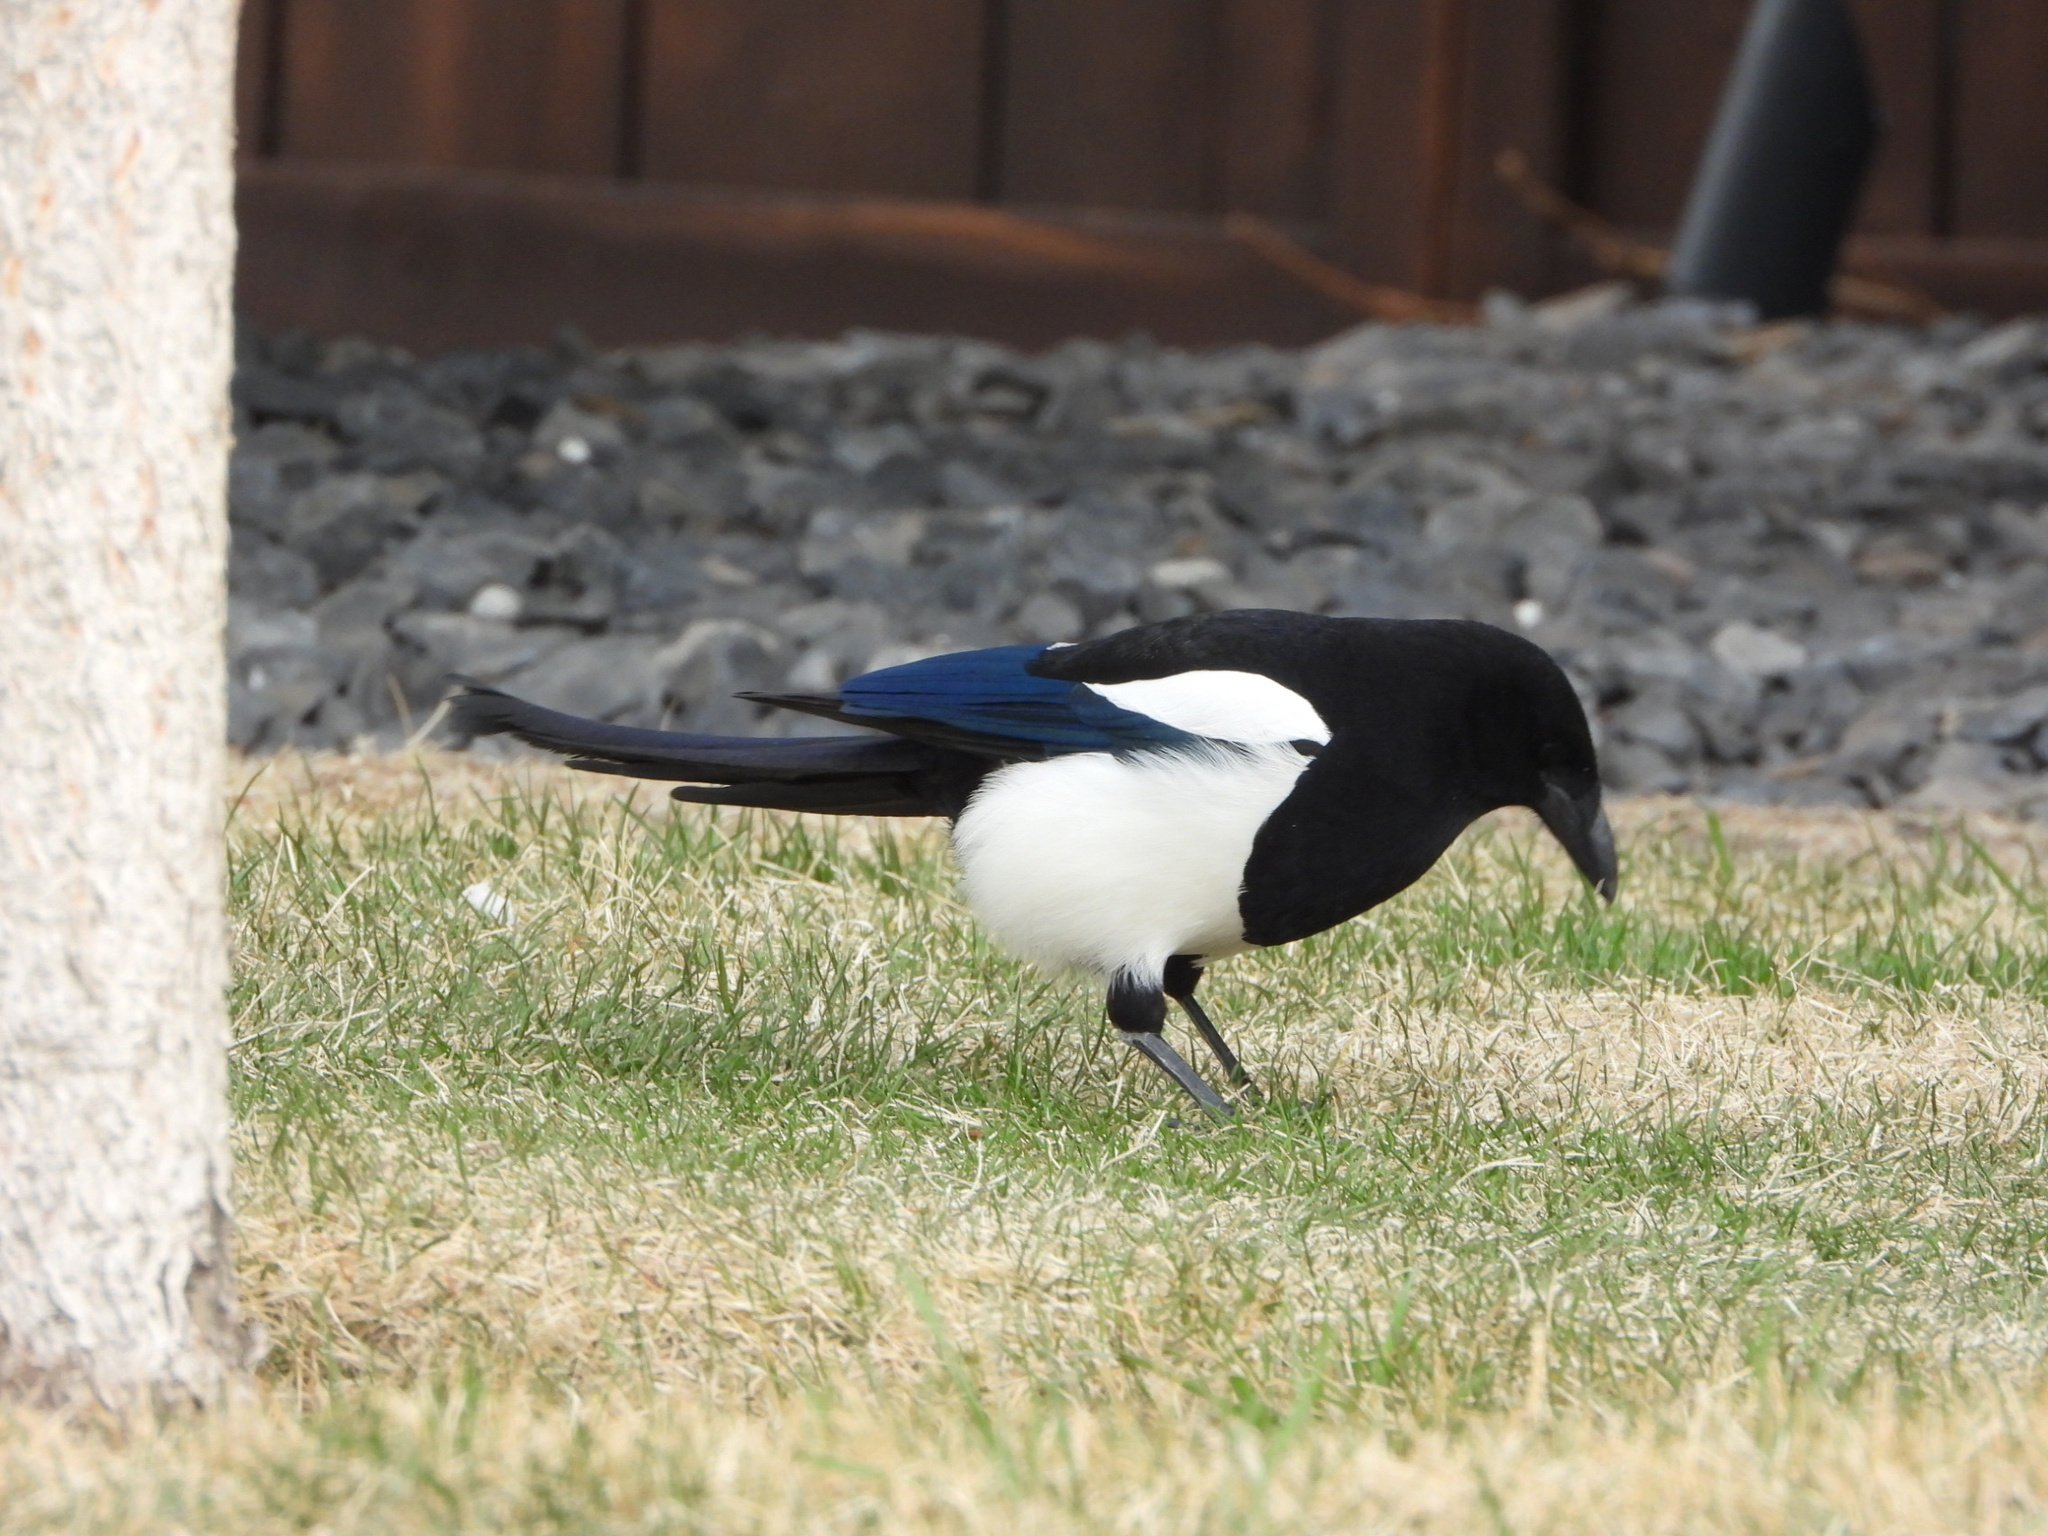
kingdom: Animalia
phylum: Chordata
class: Aves
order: Passeriformes
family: Corvidae
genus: Pica
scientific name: Pica hudsonia
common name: Black-billed magpie
